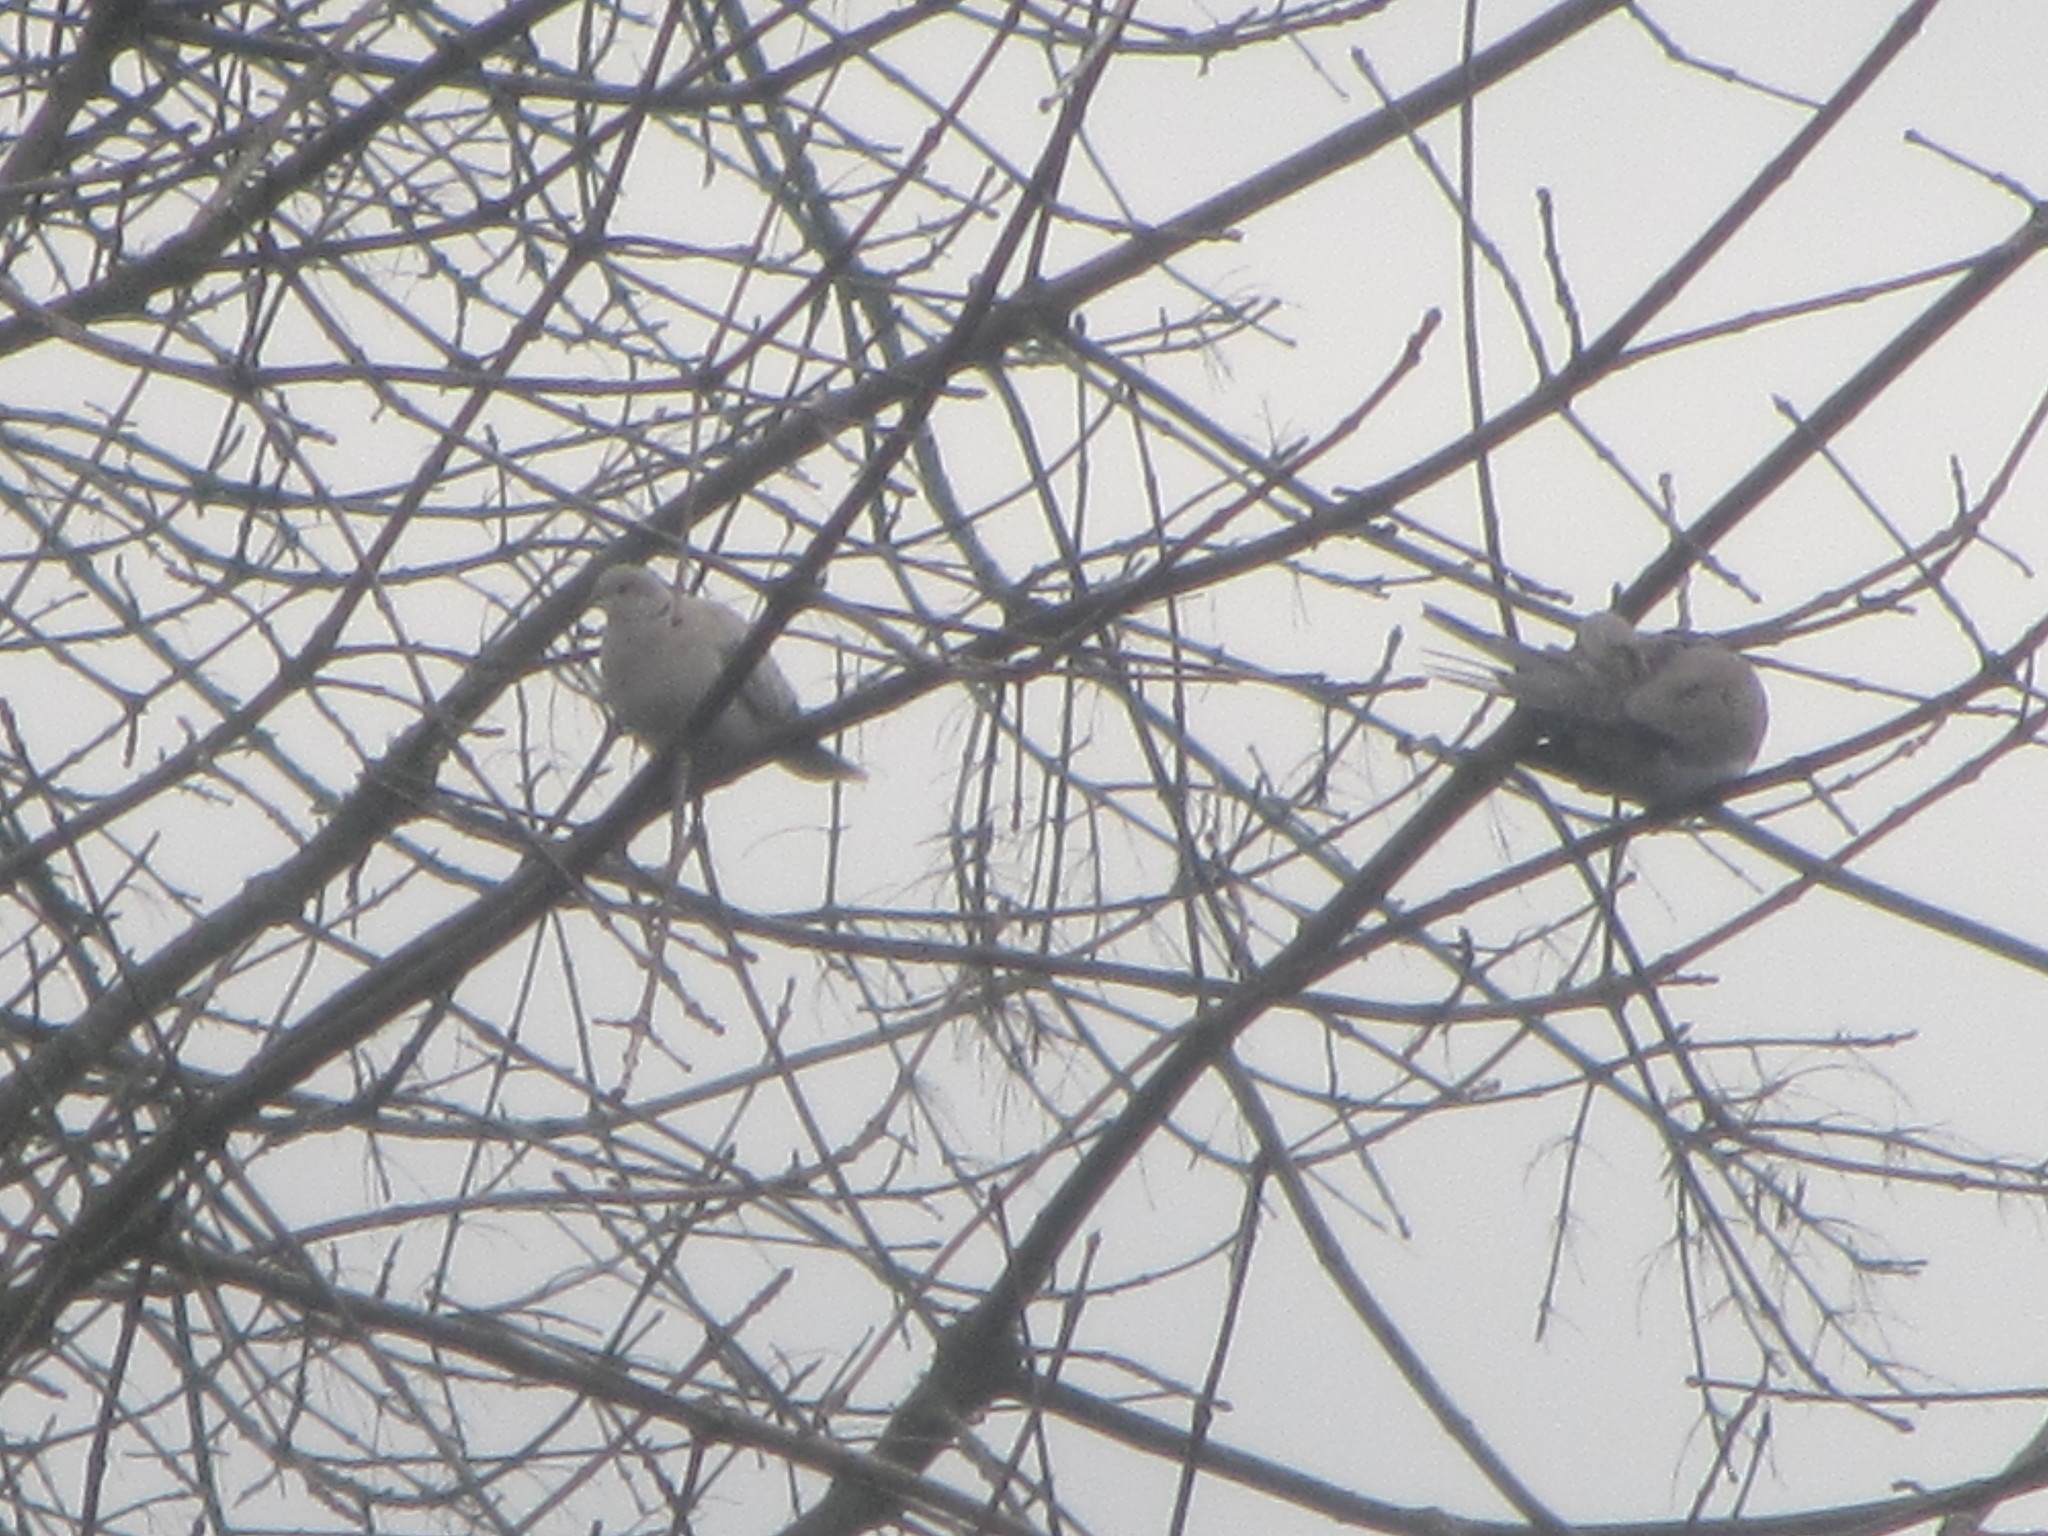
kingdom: Animalia
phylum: Chordata
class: Aves
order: Columbiformes
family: Columbidae
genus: Streptopelia
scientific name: Streptopelia decaocto
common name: Eurasian collared dove
